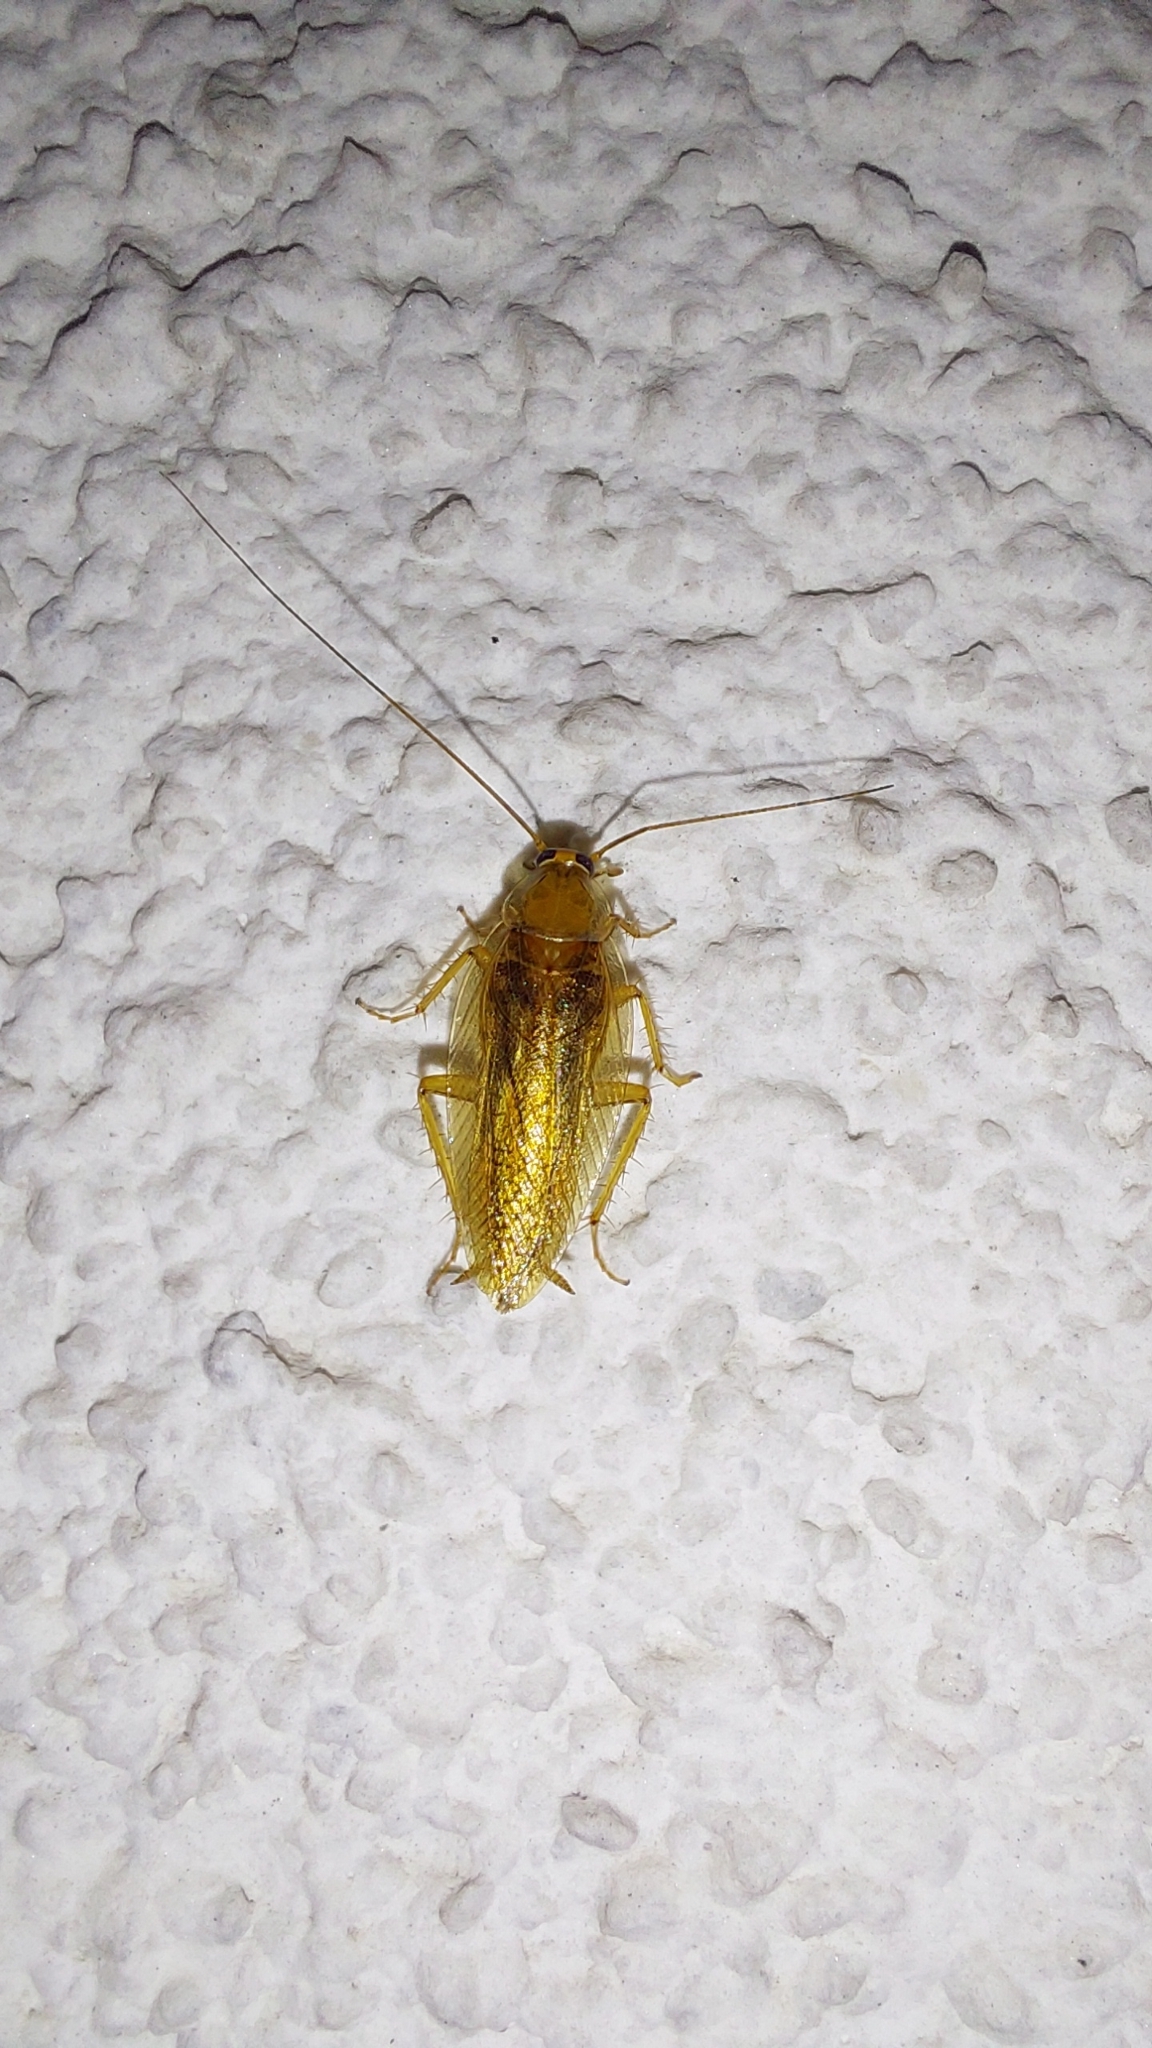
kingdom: Animalia
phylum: Arthropoda
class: Insecta
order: Blattodea
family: Ectobiidae
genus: Ectobius
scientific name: Ectobius vittiventris
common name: Garden cockroach
